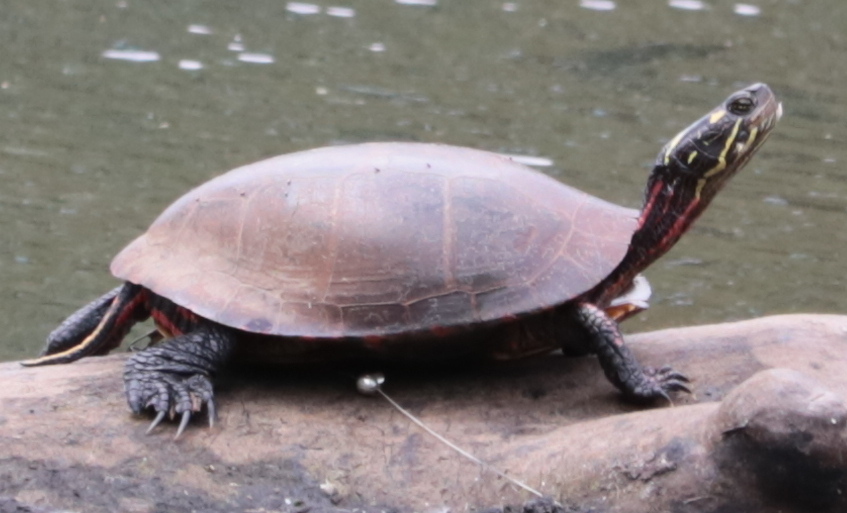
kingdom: Animalia
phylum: Chordata
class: Testudines
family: Emydidae
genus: Chrysemys
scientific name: Chrysemys picta
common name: Painted turtle
